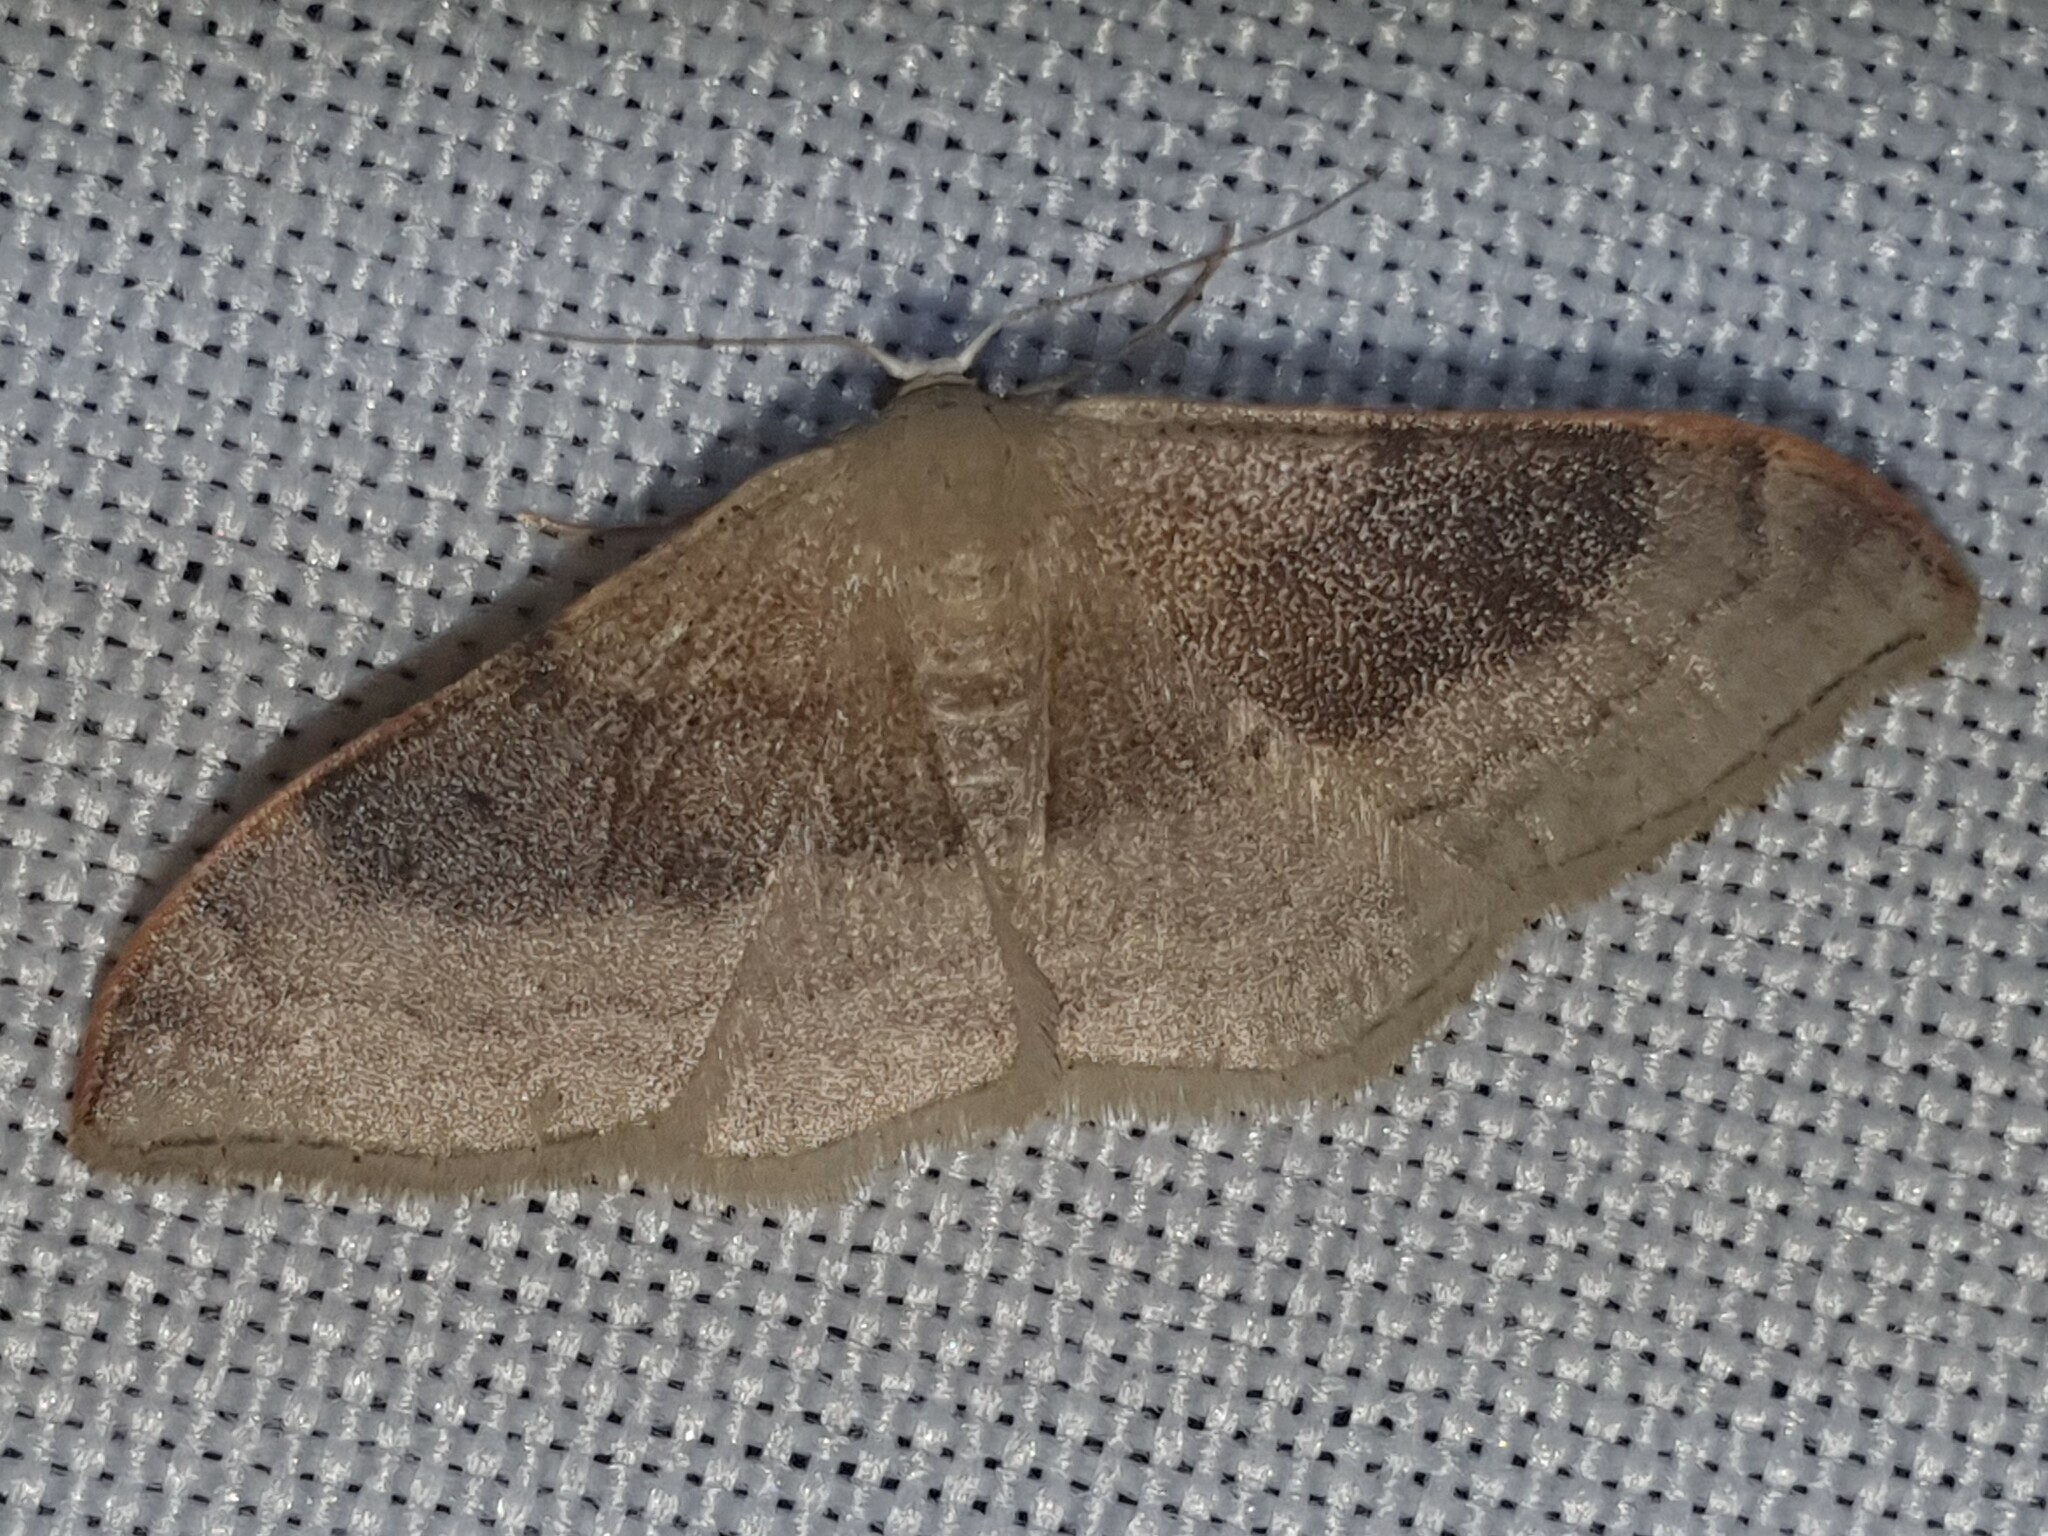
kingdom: Animalia
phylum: Arthropoda
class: Insecta
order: Lepidoptera
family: Geometridae
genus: Idaea
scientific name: Idaea degeneraria
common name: Portland ribbon wave
